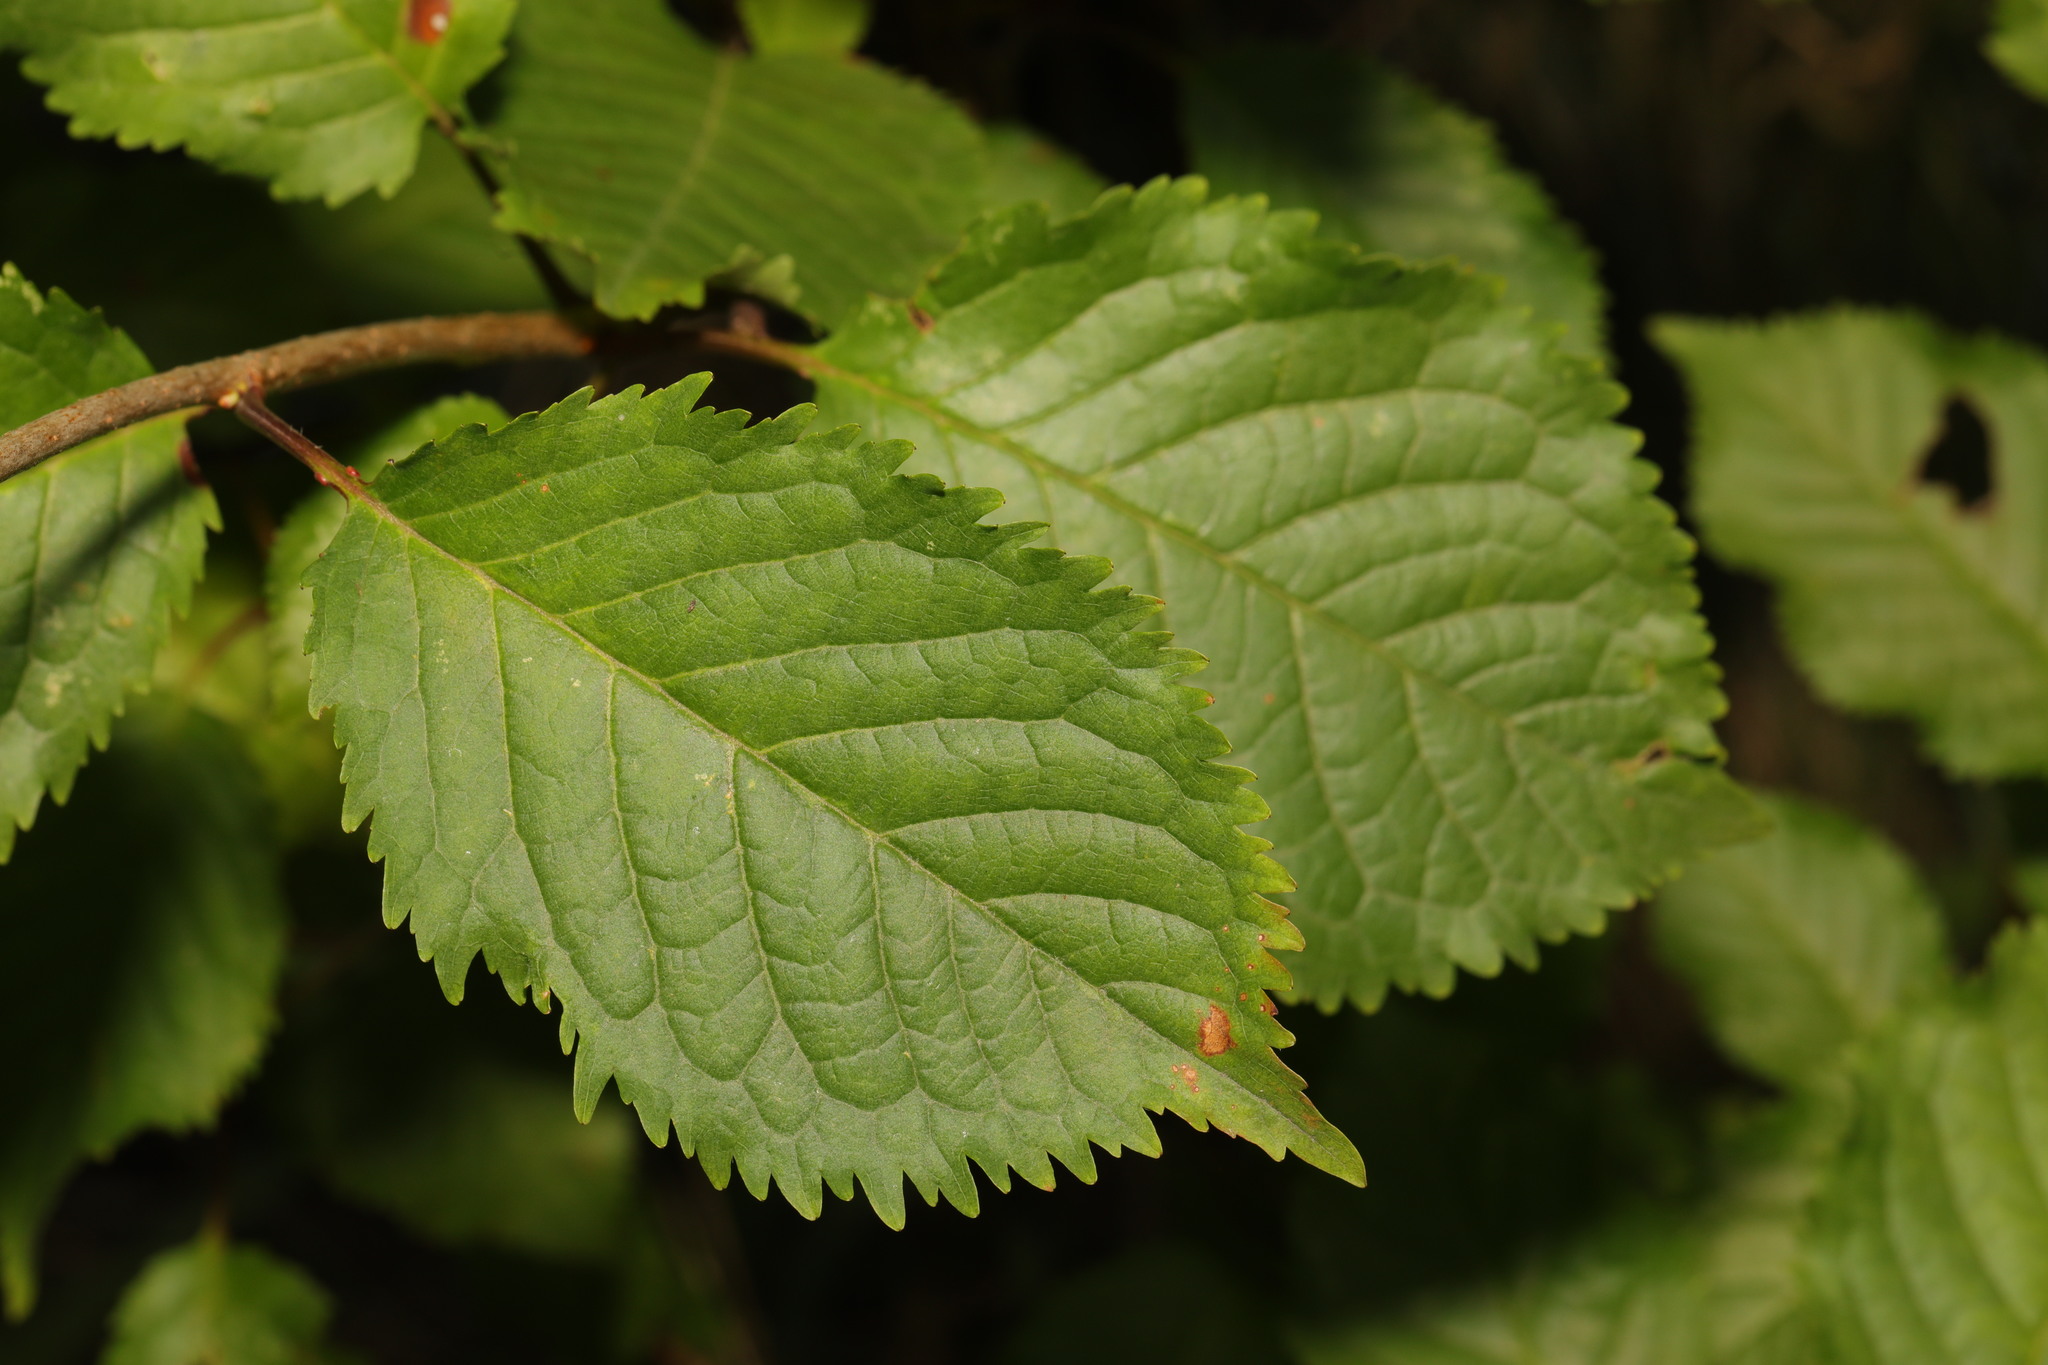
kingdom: Plantae
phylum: Tracheophyta
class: Magnoliopsida
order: Rosales
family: Rosaceae
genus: Prunus
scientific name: Prunus avium
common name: Sweet cherry
